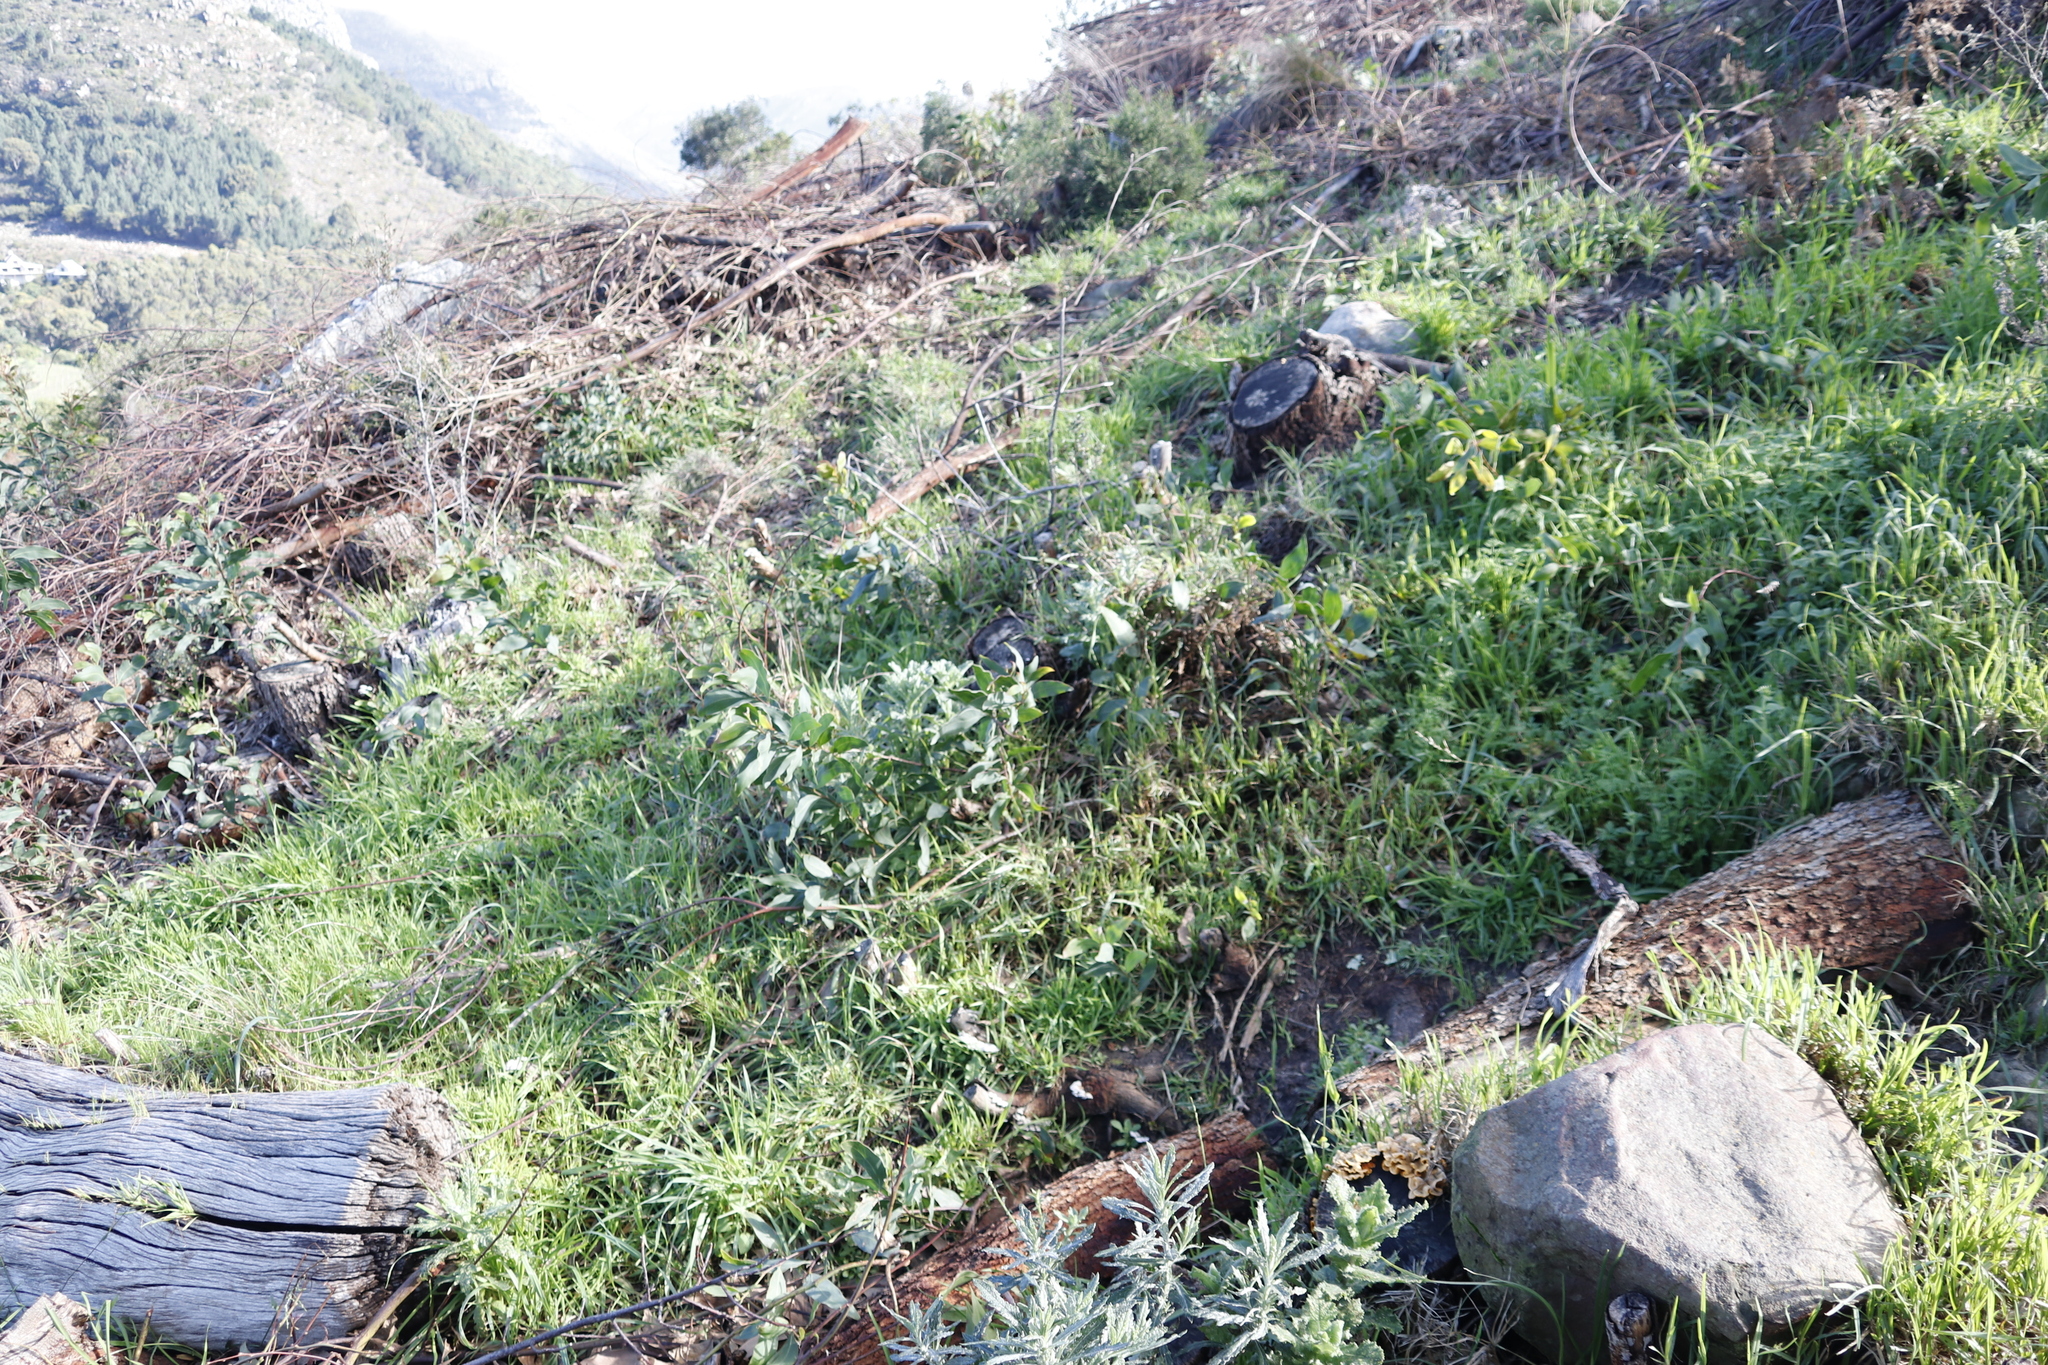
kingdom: Plantae
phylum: Tracheophyta
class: Magnoliopsida
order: Fabales
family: Fabaceae
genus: Acacia
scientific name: Acacia falciformis
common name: Tanning wattle
